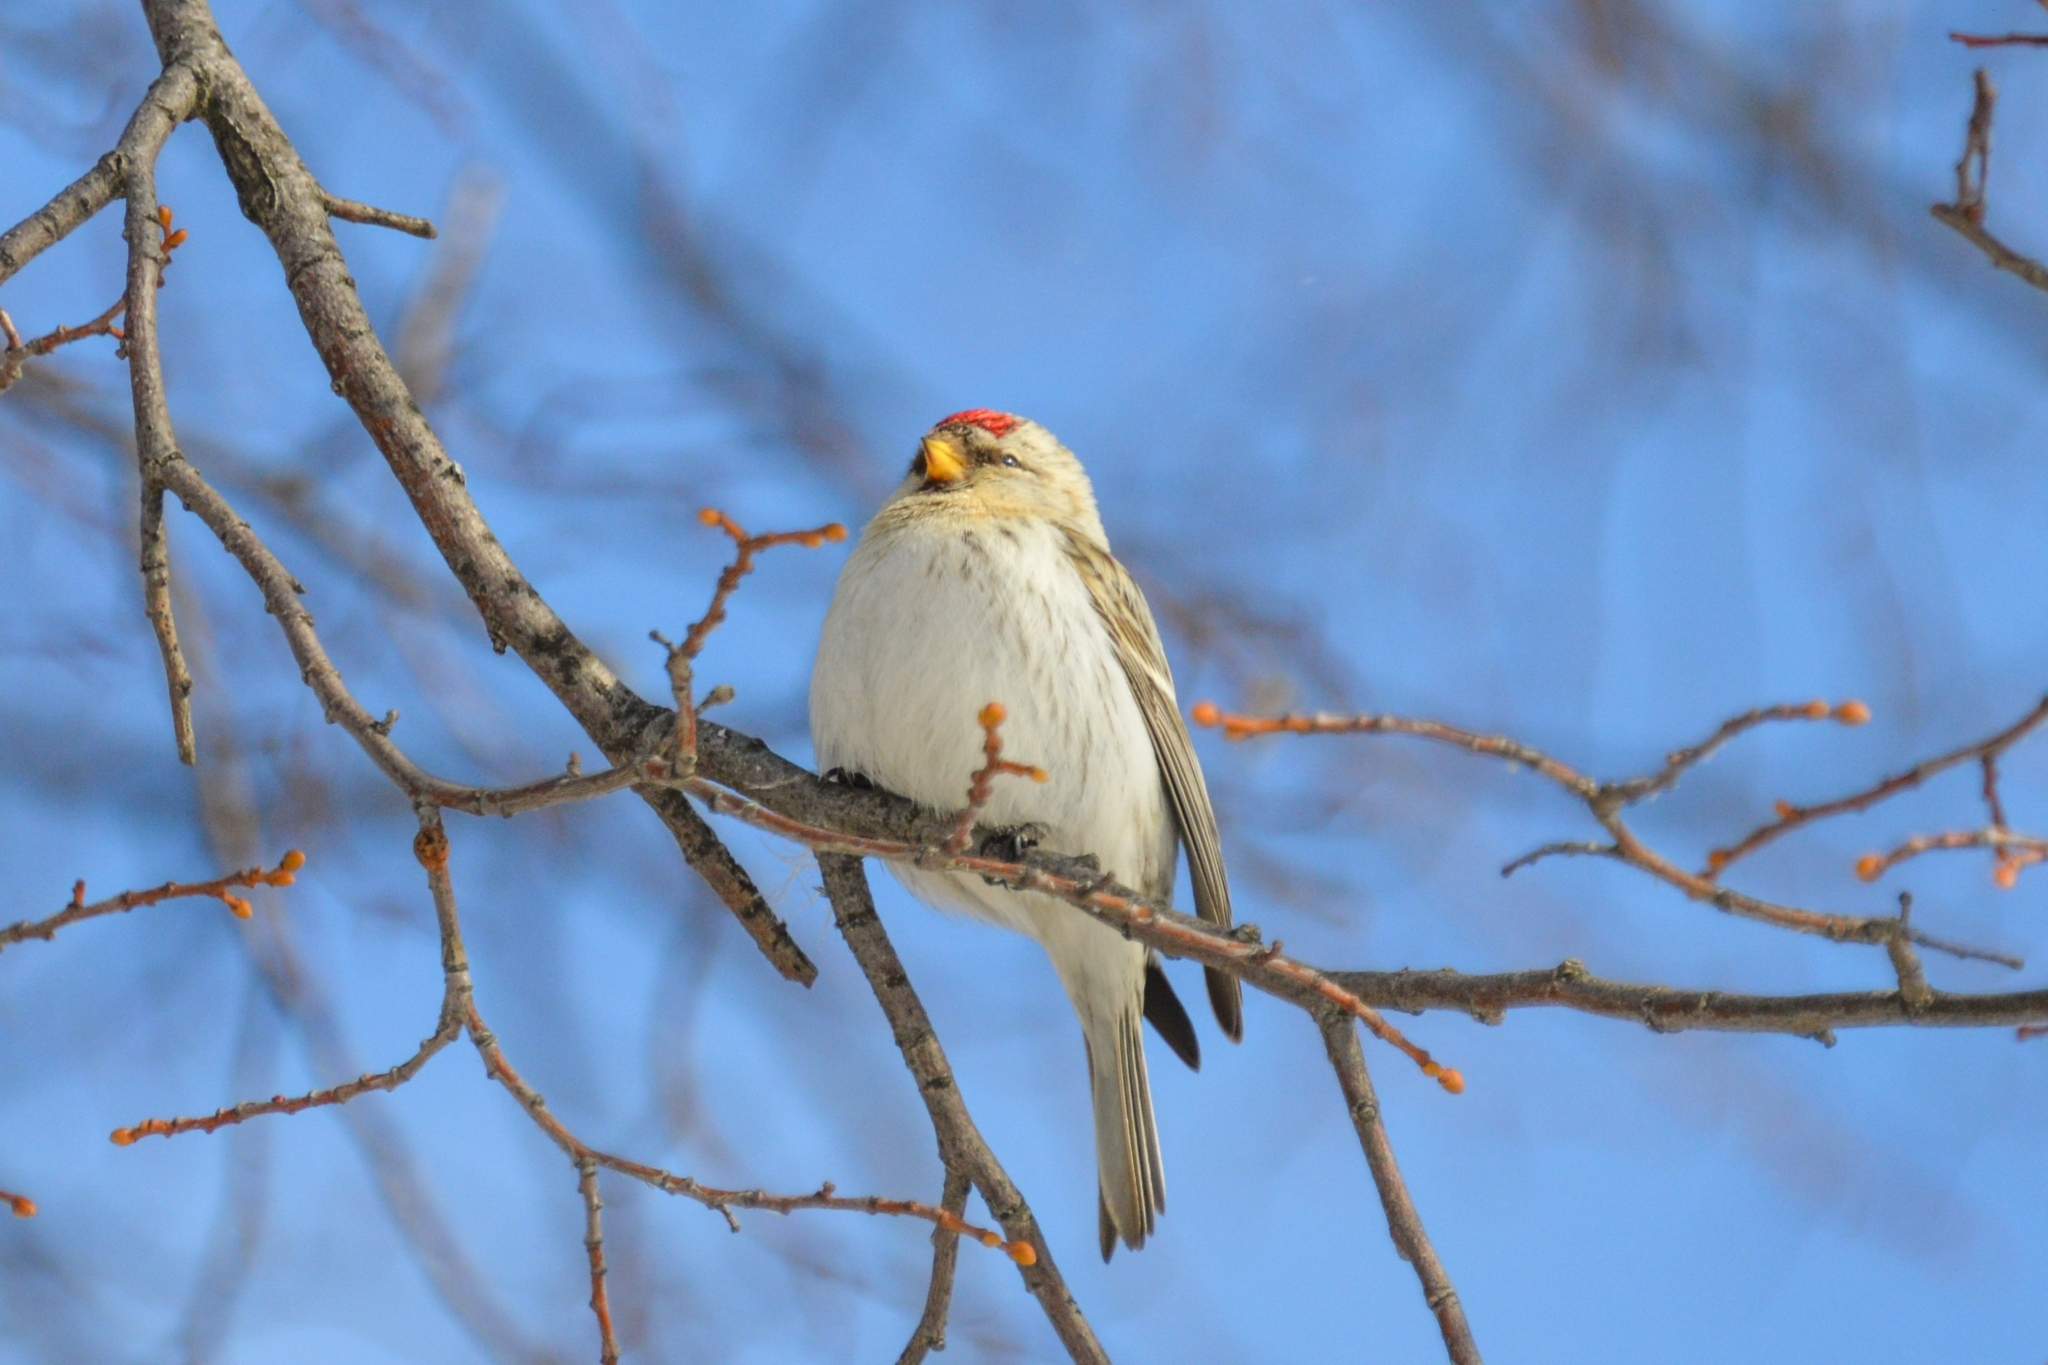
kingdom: Animalia
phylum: Chordata
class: Aves
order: Passeriformes
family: Fringillidae
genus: Acanthis
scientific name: Acanthis hornemanni
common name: Arctic redpoll
